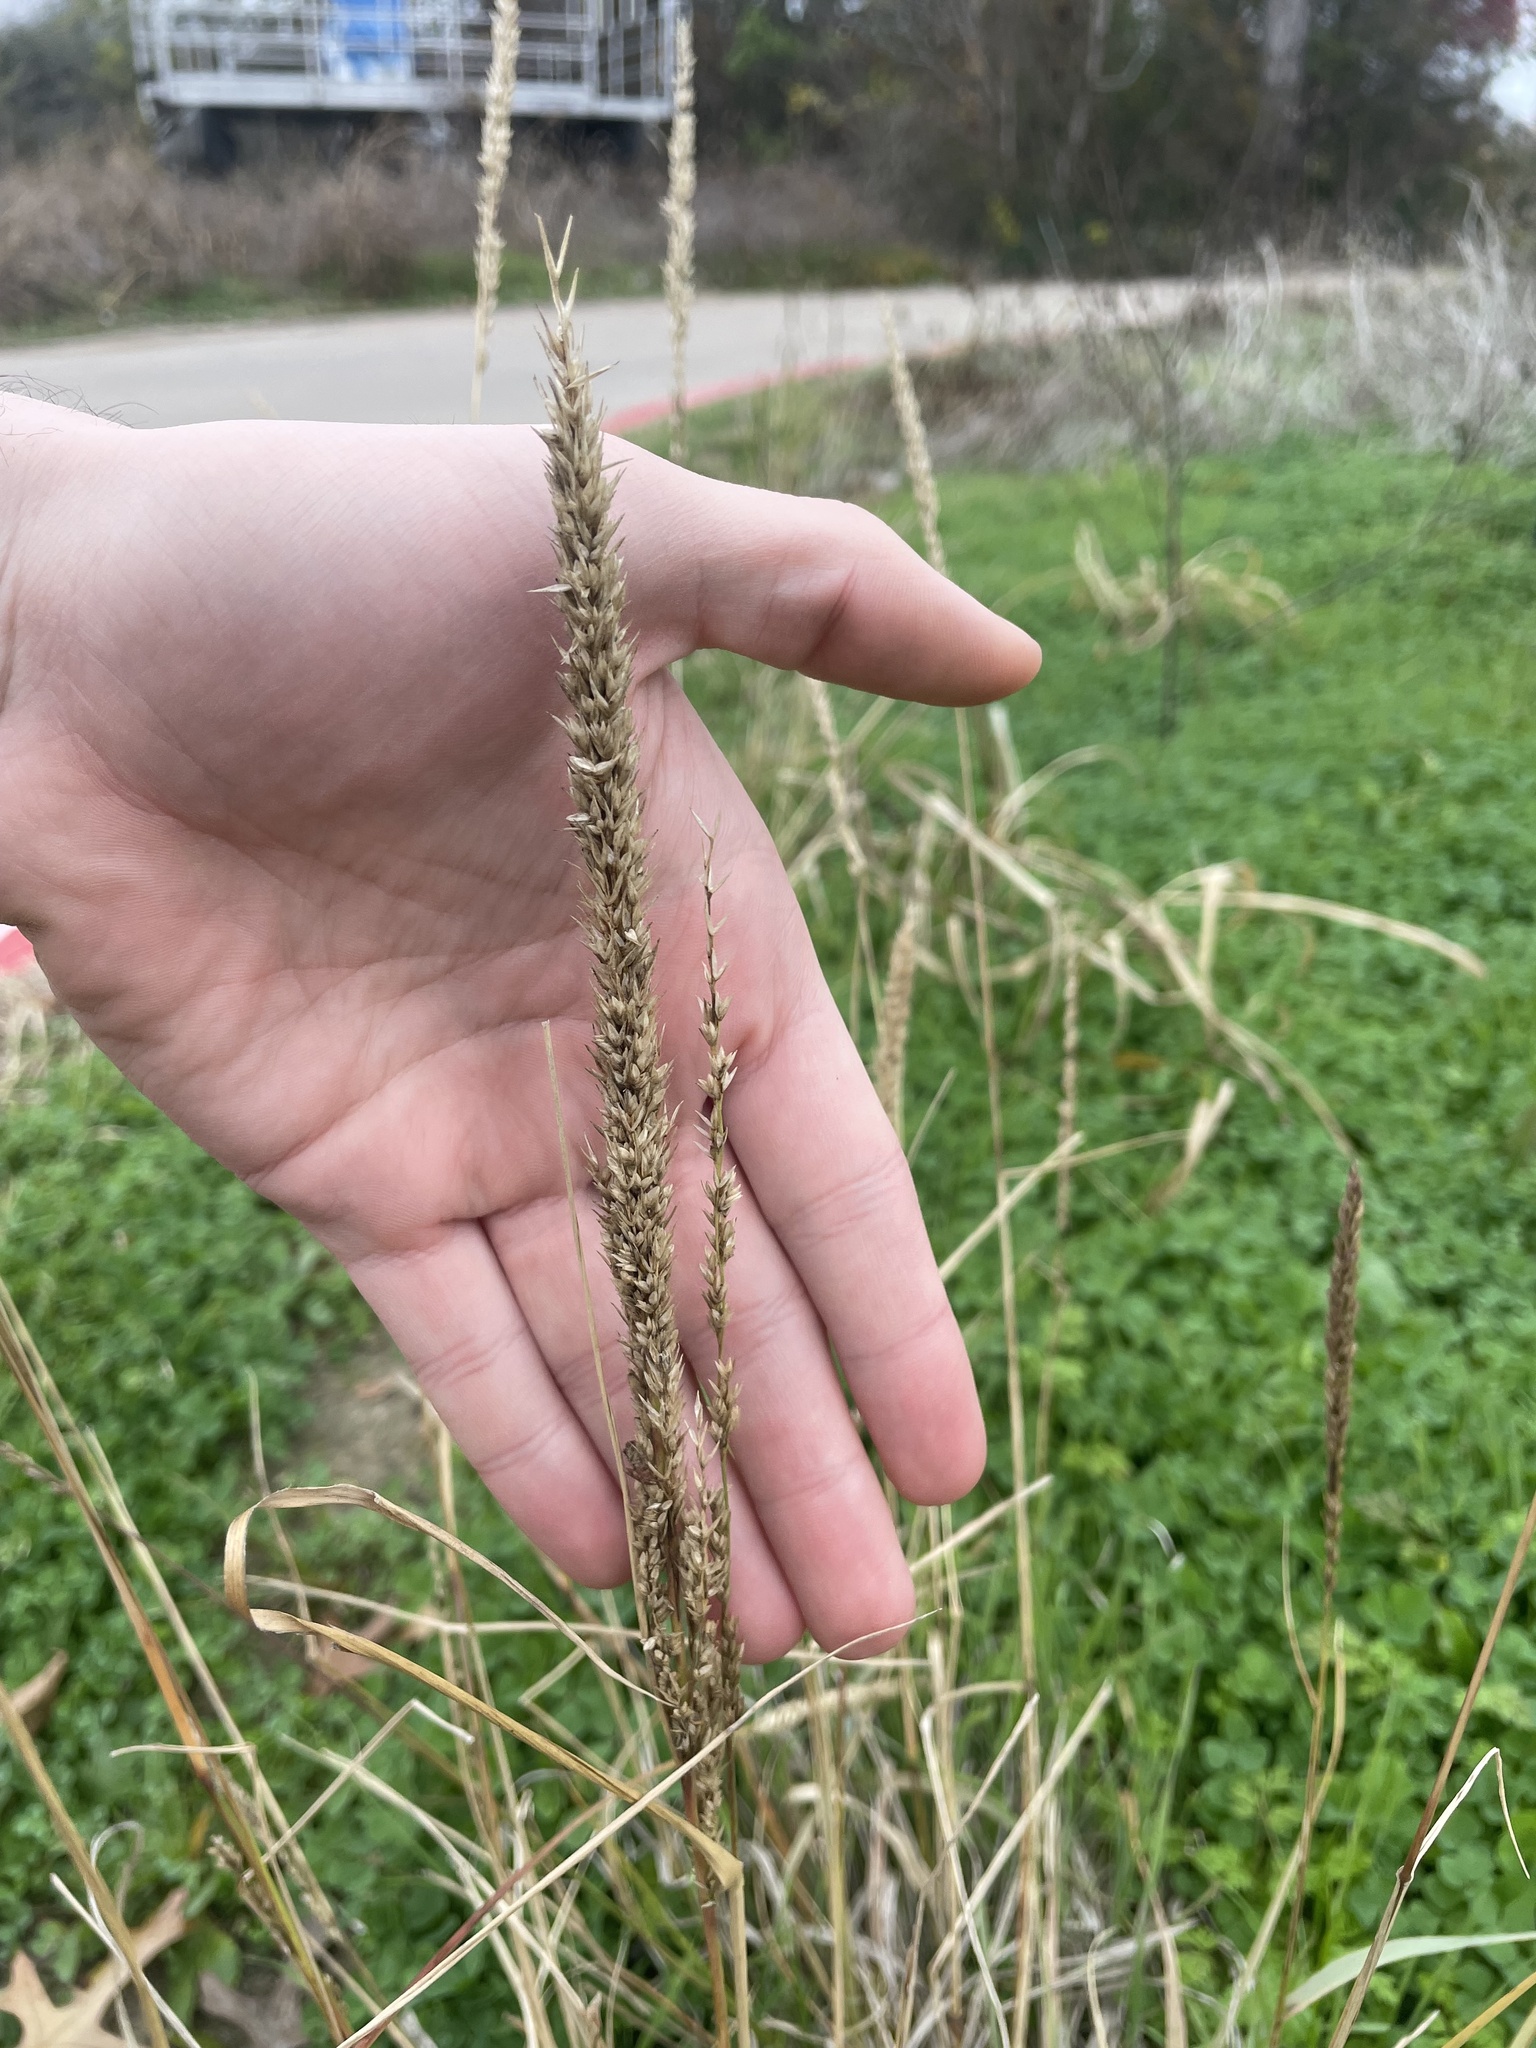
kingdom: Plantae
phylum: Tracheophyta
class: Liliopsida
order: Poales
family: Poaceae
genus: Tridens
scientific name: Tridens strictus
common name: Long-spike tridens
